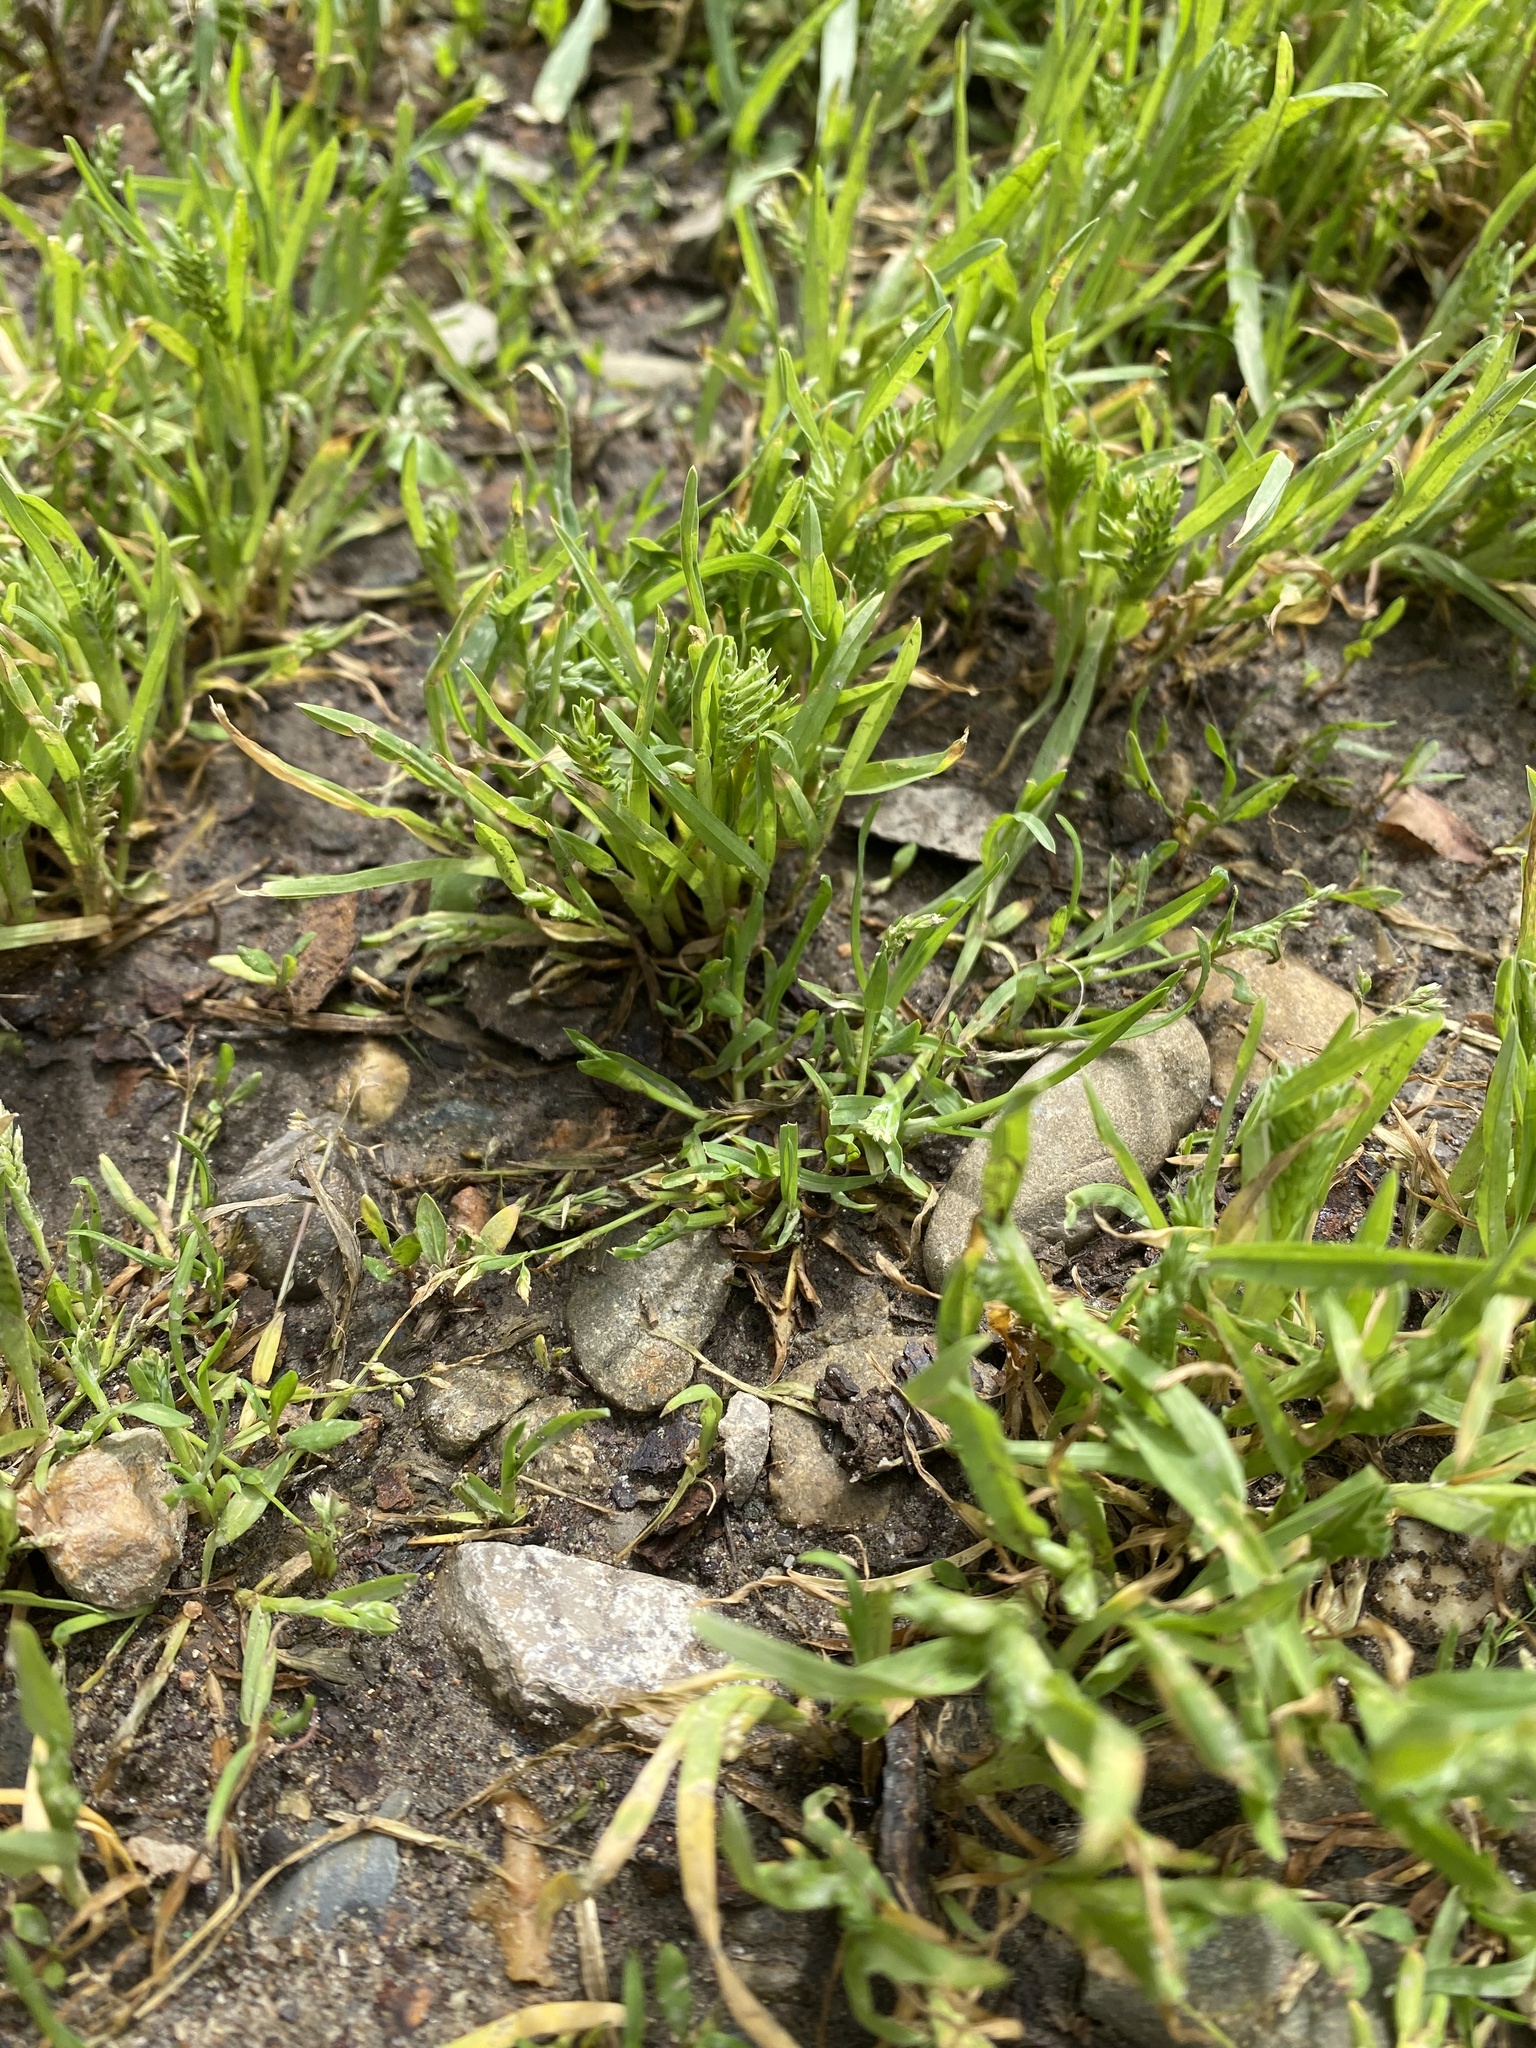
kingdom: Plantae
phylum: Tracheophyta
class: Liliopsida
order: Poales
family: Poaceae
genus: Sclerochloa
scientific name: Sclerochloa dura
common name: Common hardgrass
